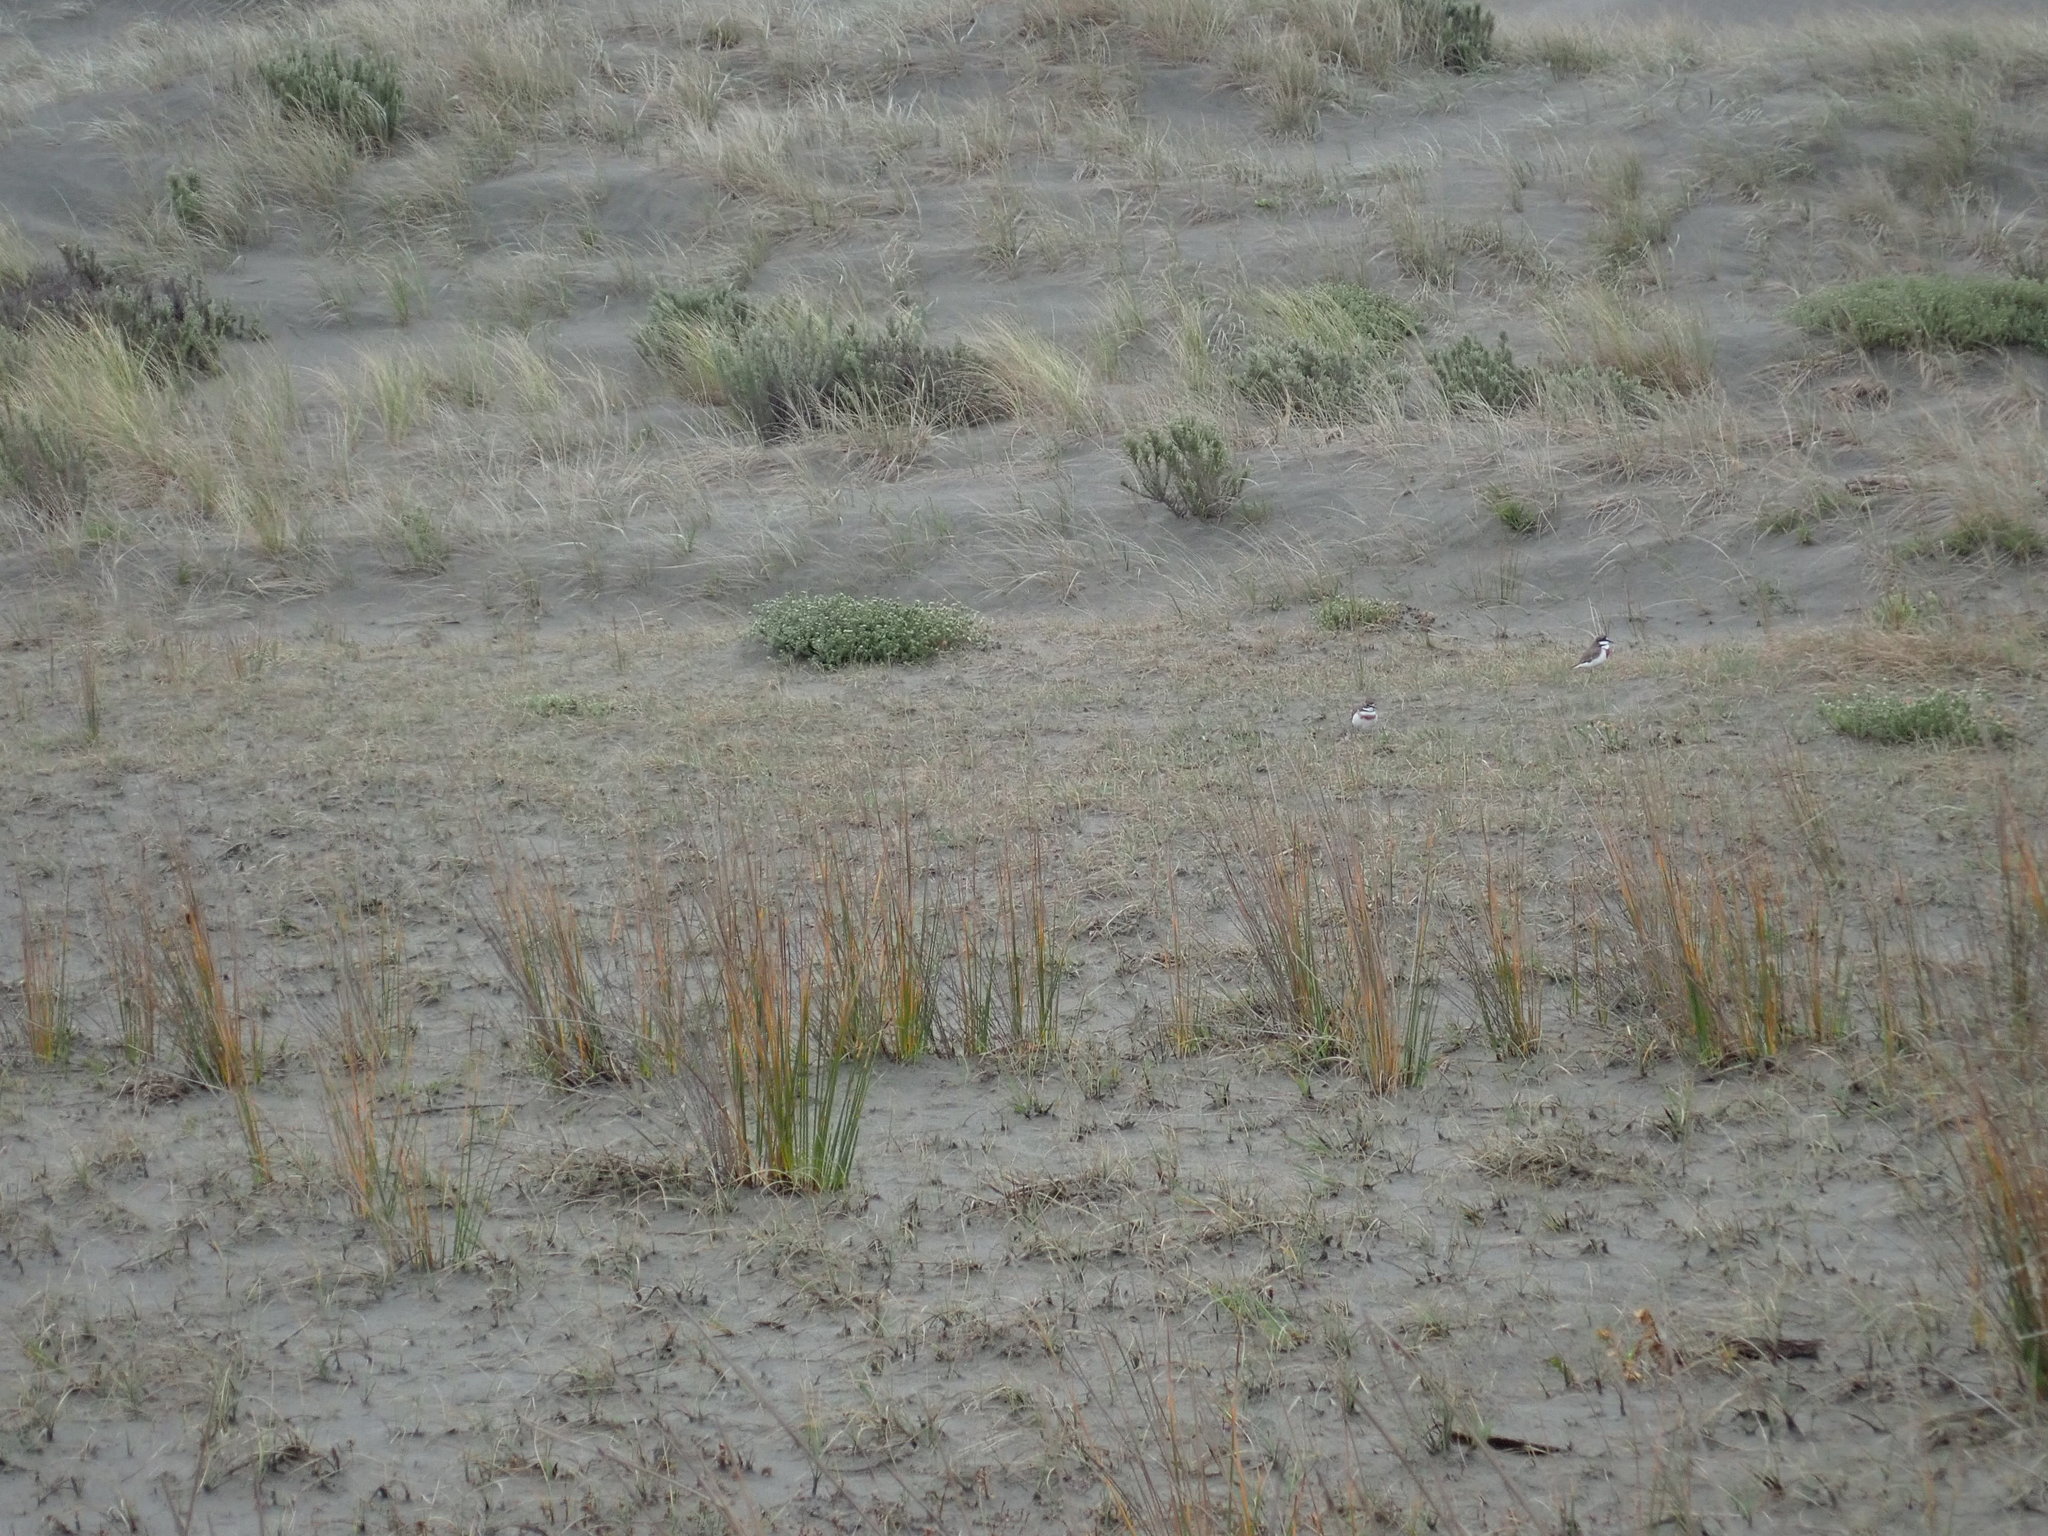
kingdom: Animalia
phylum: Chordata
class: Aves
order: Charadriiformes
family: Charadriidae
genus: Anarhynchus
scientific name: Anarhynchus
